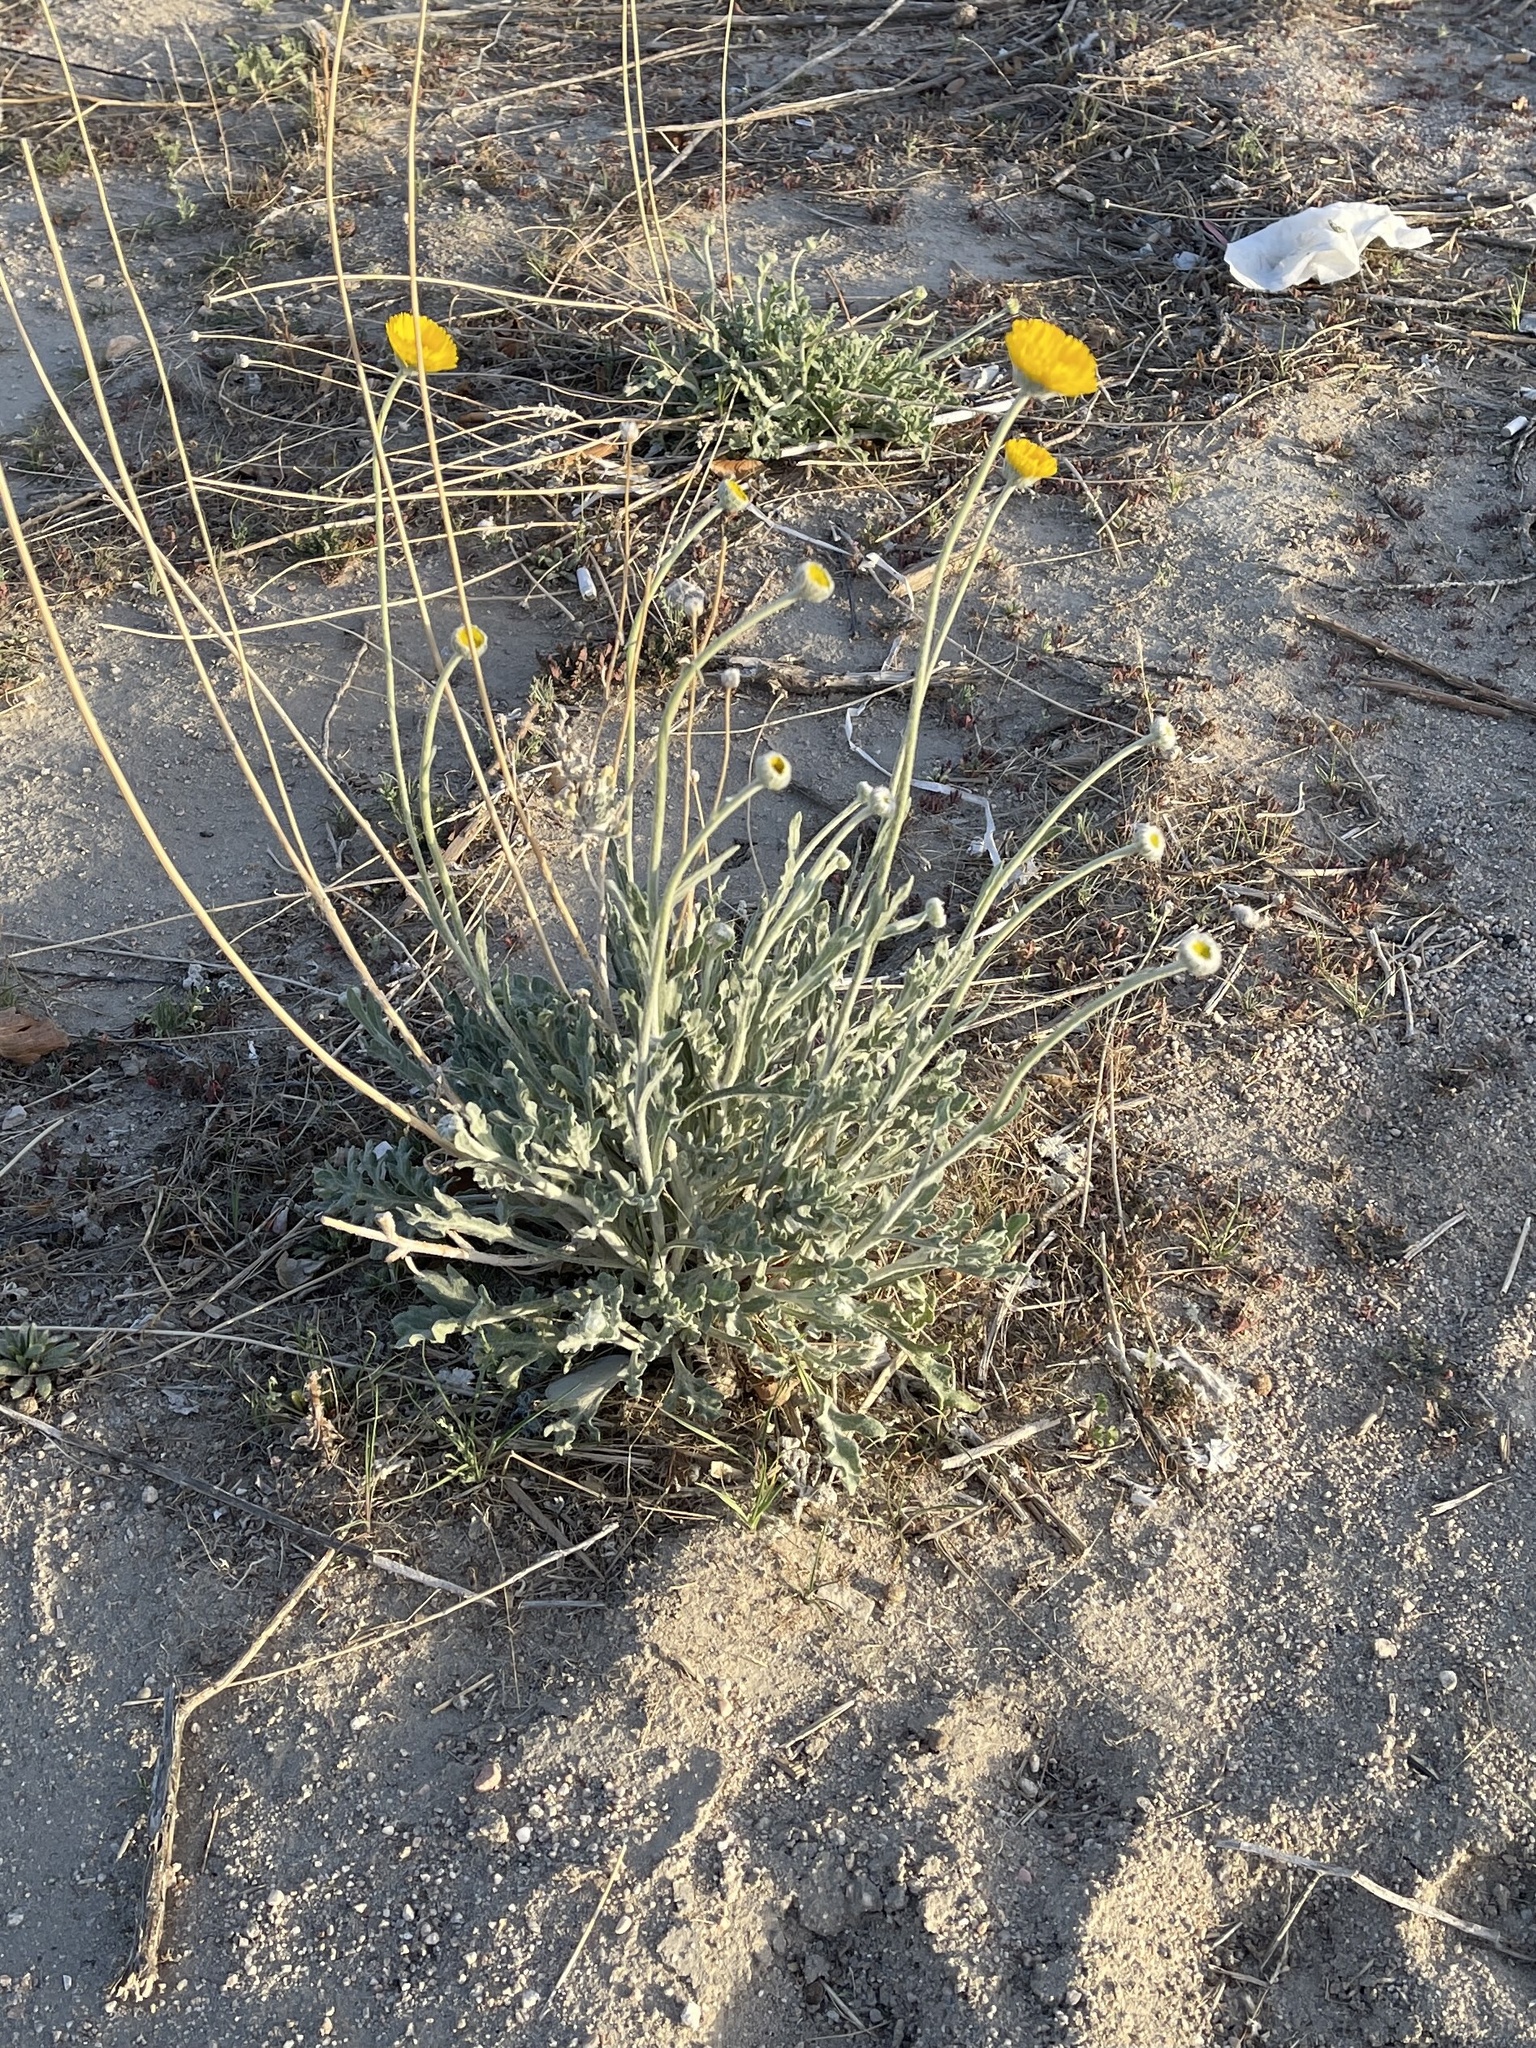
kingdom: Plantae
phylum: Tracheophyta
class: Magnoliopsida
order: Asterales
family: Asteraceae
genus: Baileya
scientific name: Baileya multiradiata
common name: Desert-marigold
